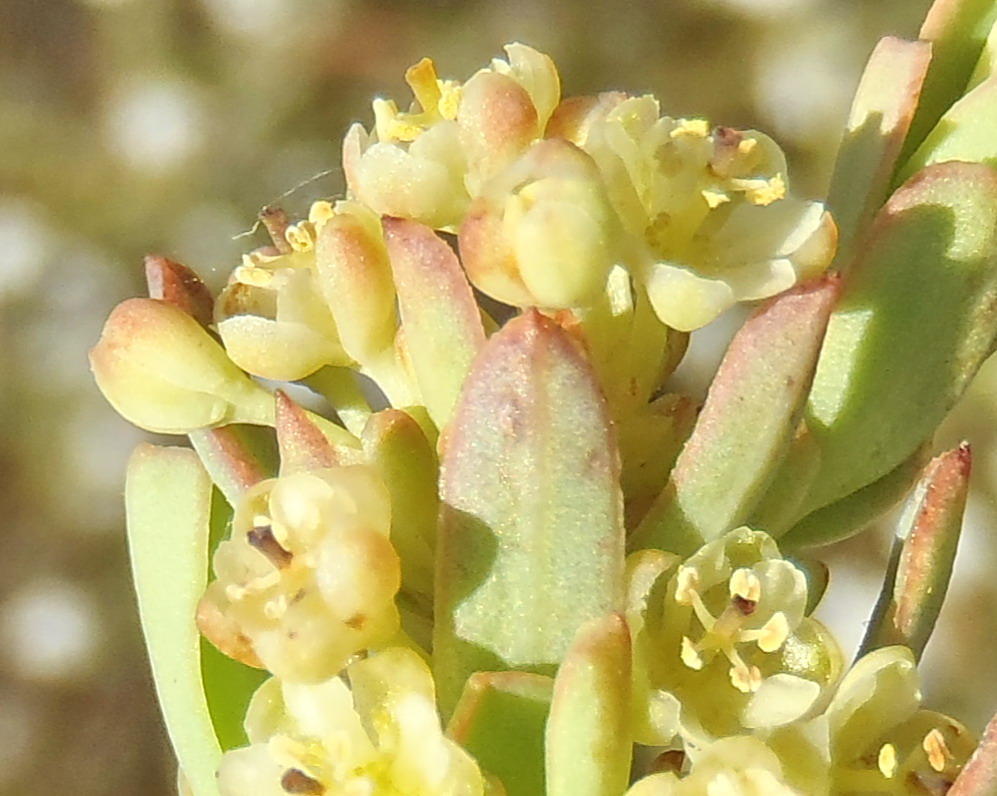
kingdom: Plantae
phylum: Tracheophyta
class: Magnoliopsida
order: Malpighiales
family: Peraceae
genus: Clutia
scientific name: Clutia laxa
